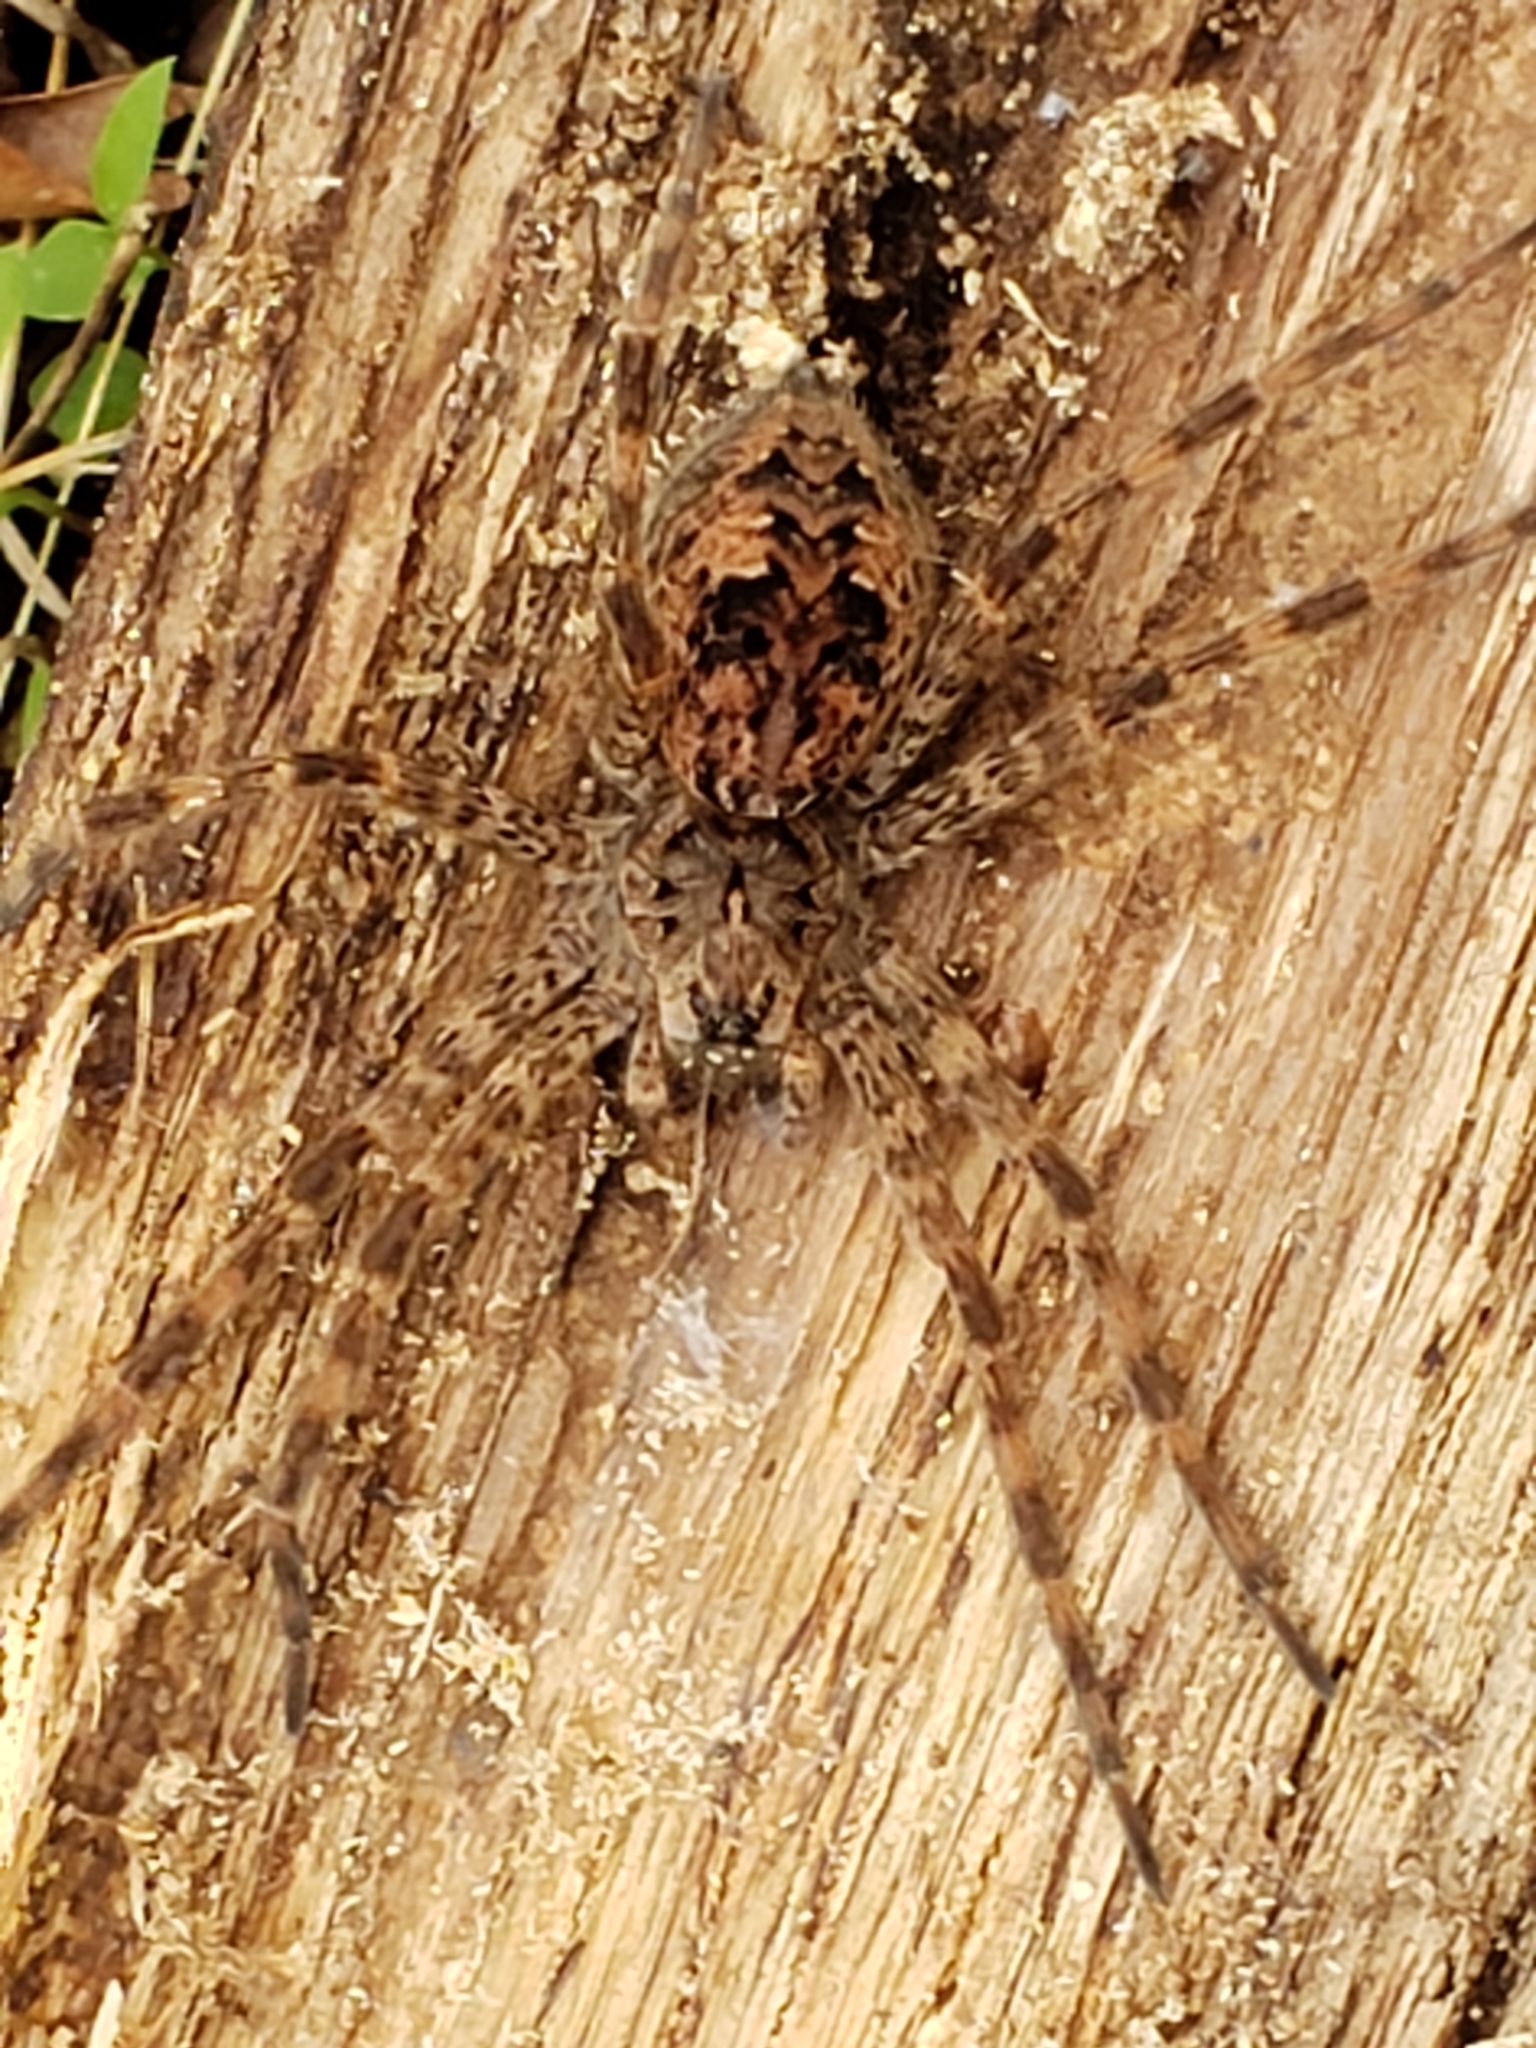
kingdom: Animalia
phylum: Arthropoda
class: Arachnida
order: Araneae
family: Pisauridae
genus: Dolomedes
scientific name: Dolomedes tenebrosus
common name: Dark fishing spider
